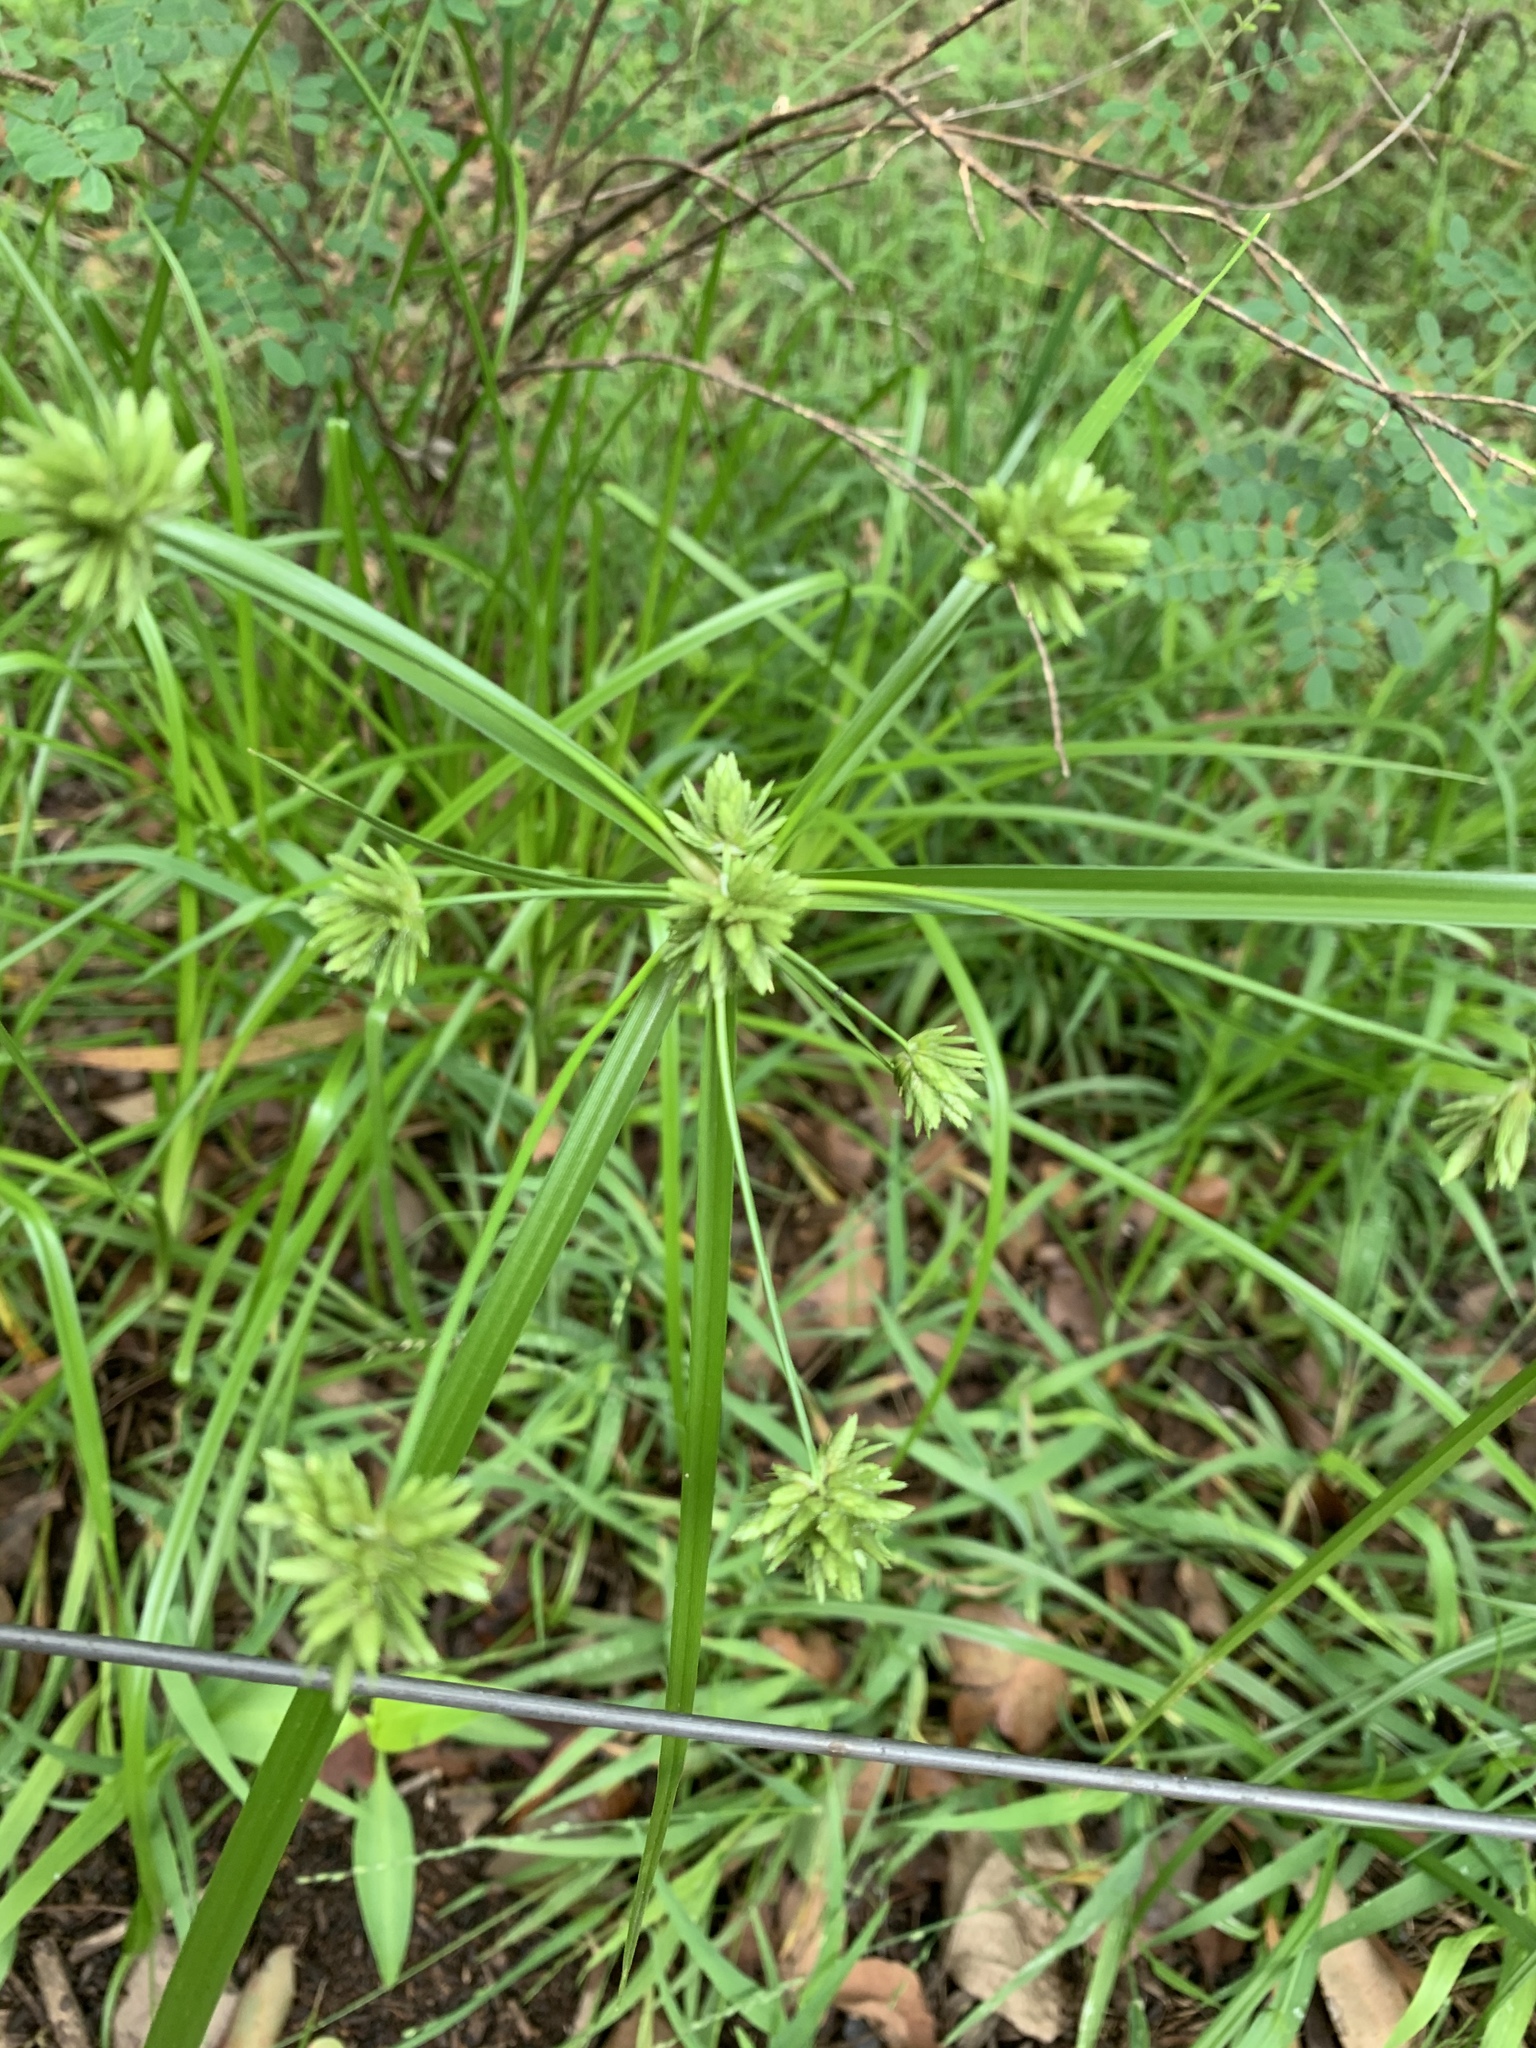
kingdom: Plantae
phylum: Tracheophyta
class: Liliopsida
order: Poales
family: Cyperaceae
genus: Cyperus
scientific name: Cyperus eragrostis
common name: Tall flatsedge
